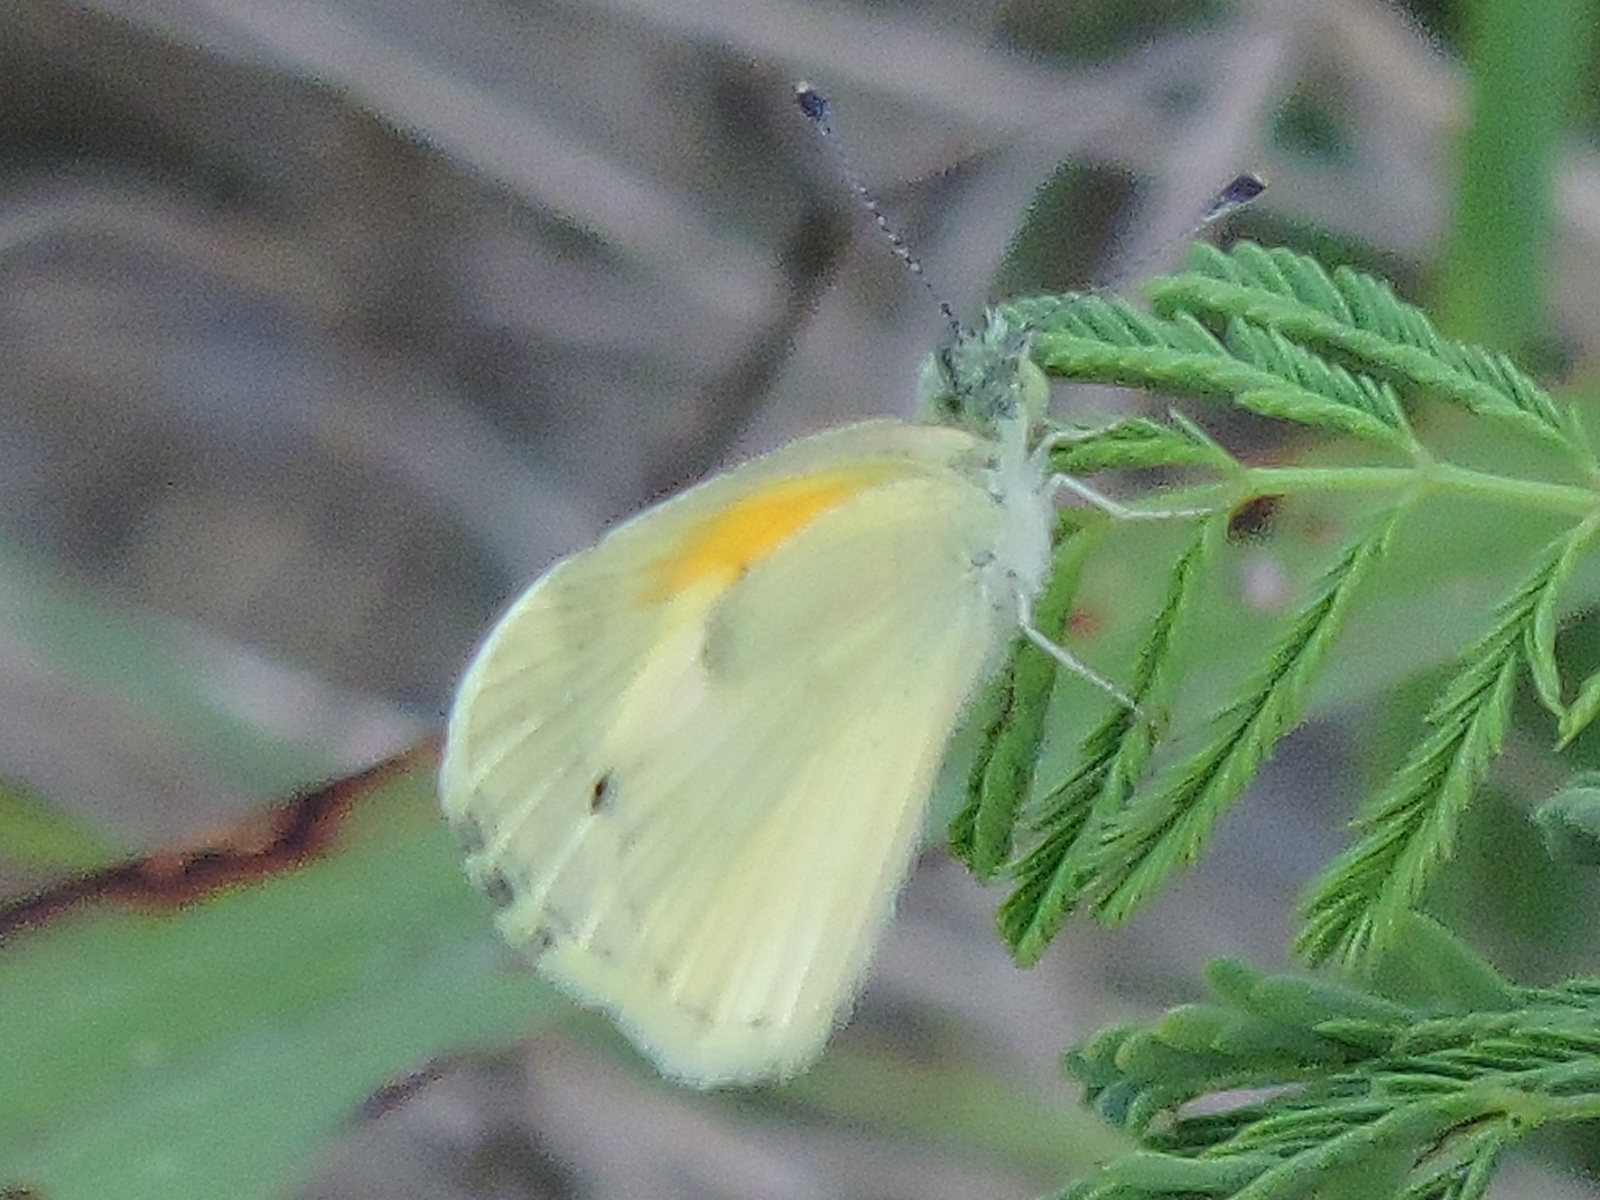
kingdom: Animalia
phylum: Arthropoda
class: Insecta
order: Lepidoptera
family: Pieridae
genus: Nathalis
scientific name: Nathalis iole
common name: Dainty sulphur
